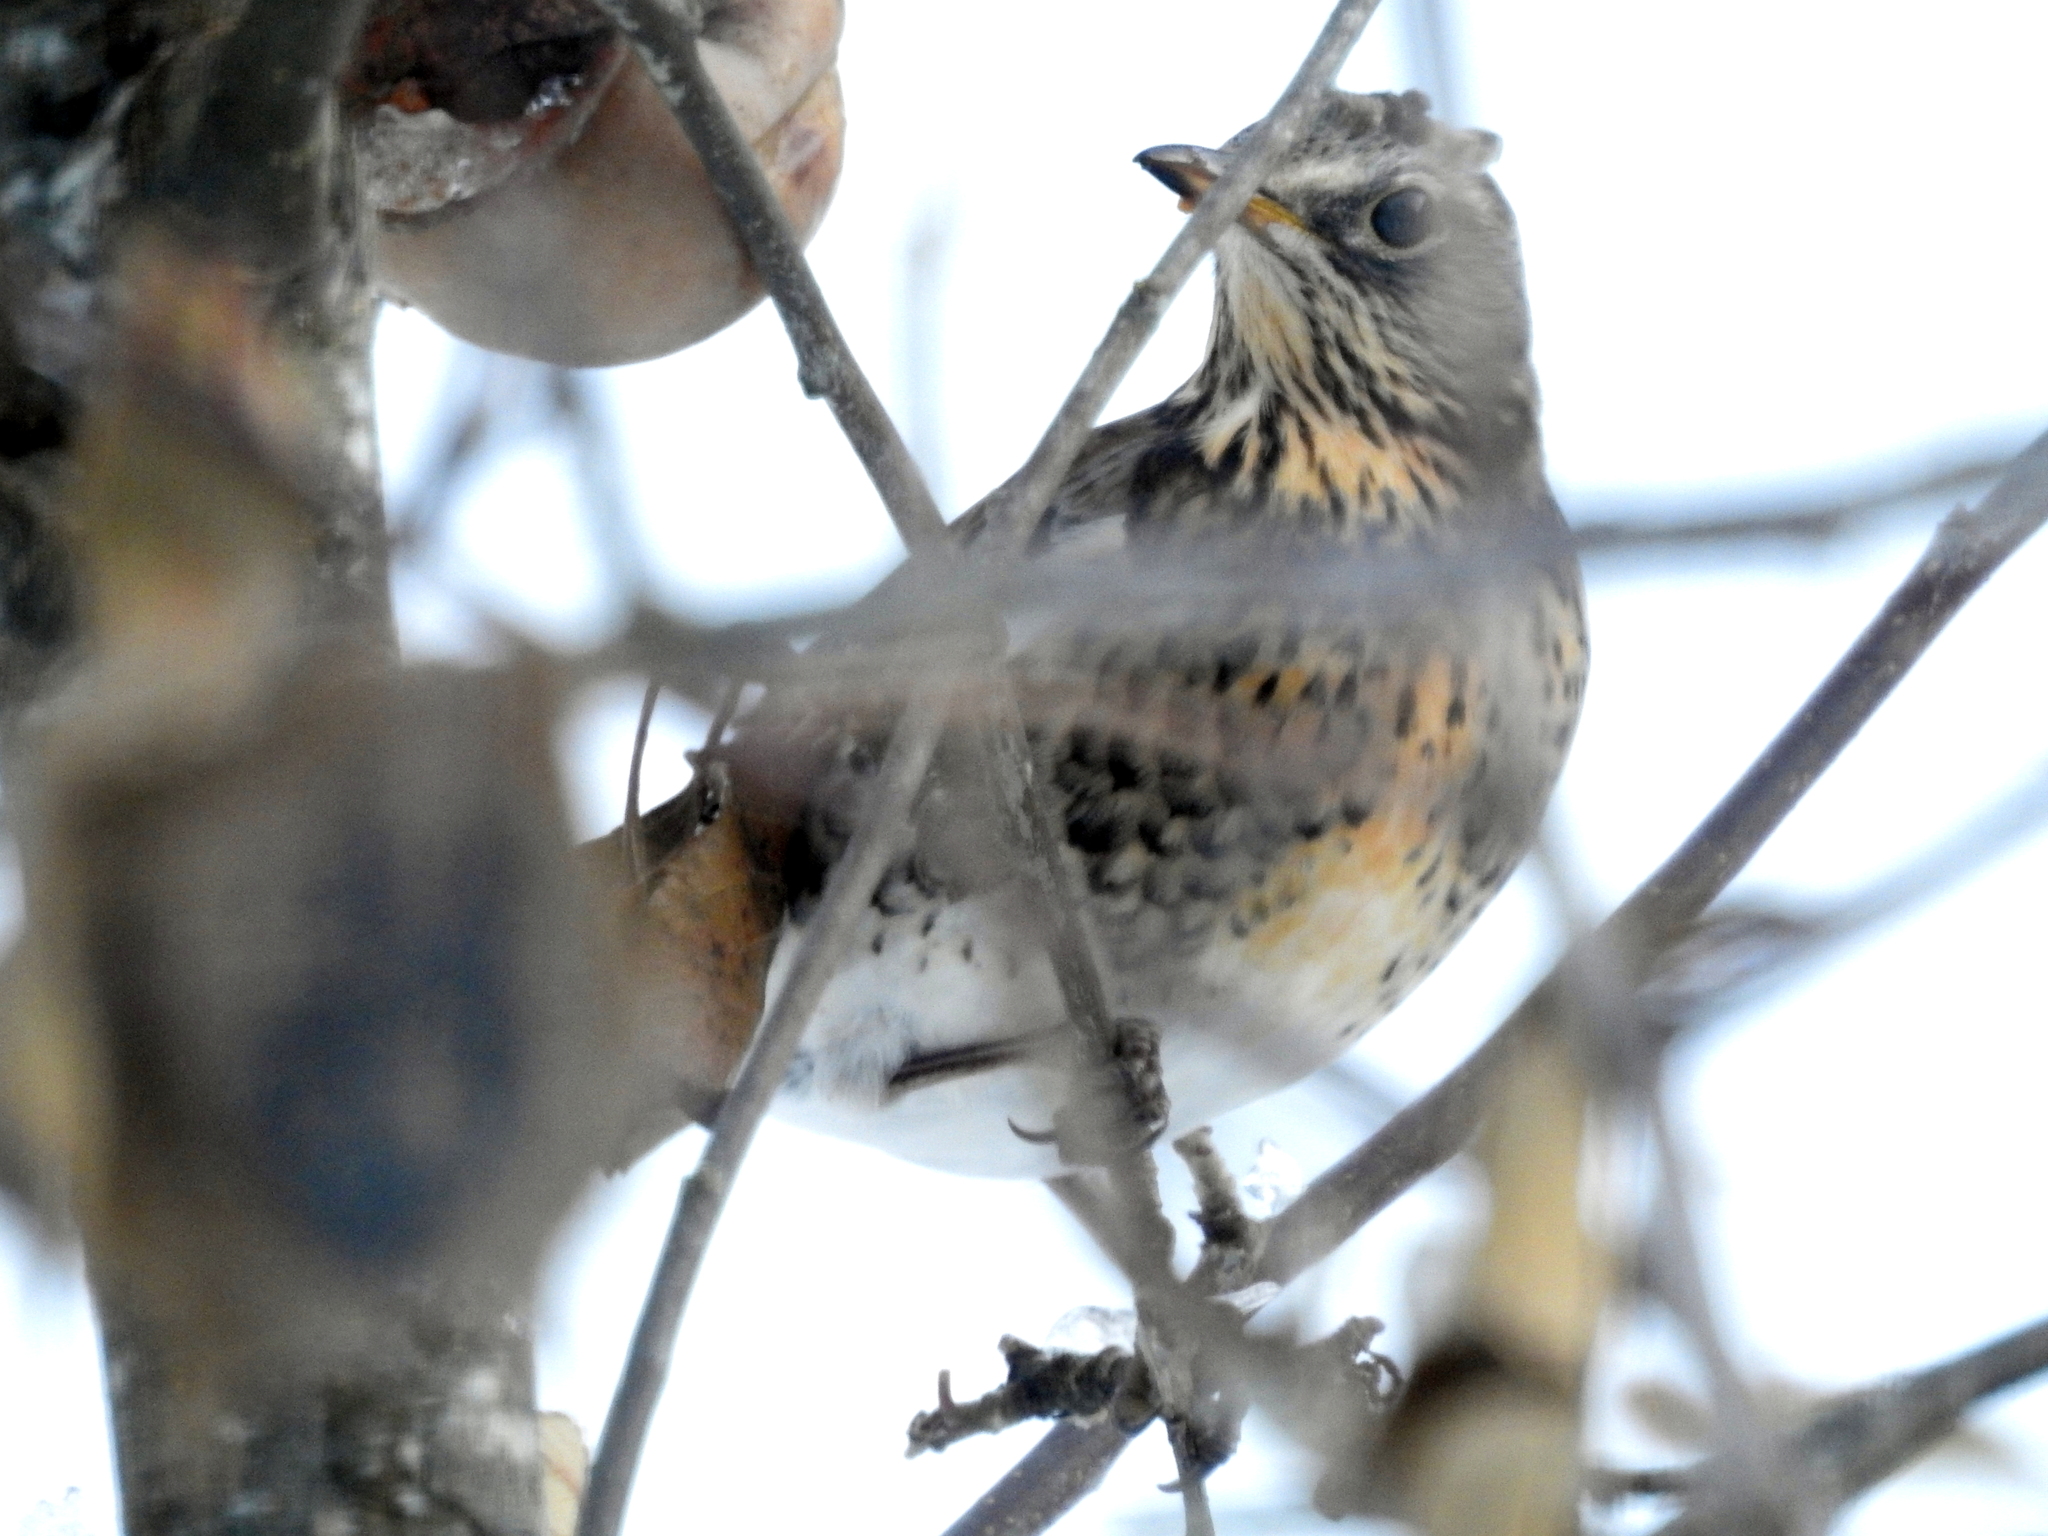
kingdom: Animalia
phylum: Chordata
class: Aves
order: Passeriformes
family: Turdidae
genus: Turdus
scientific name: Turdus pilaris
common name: Fieldfare
